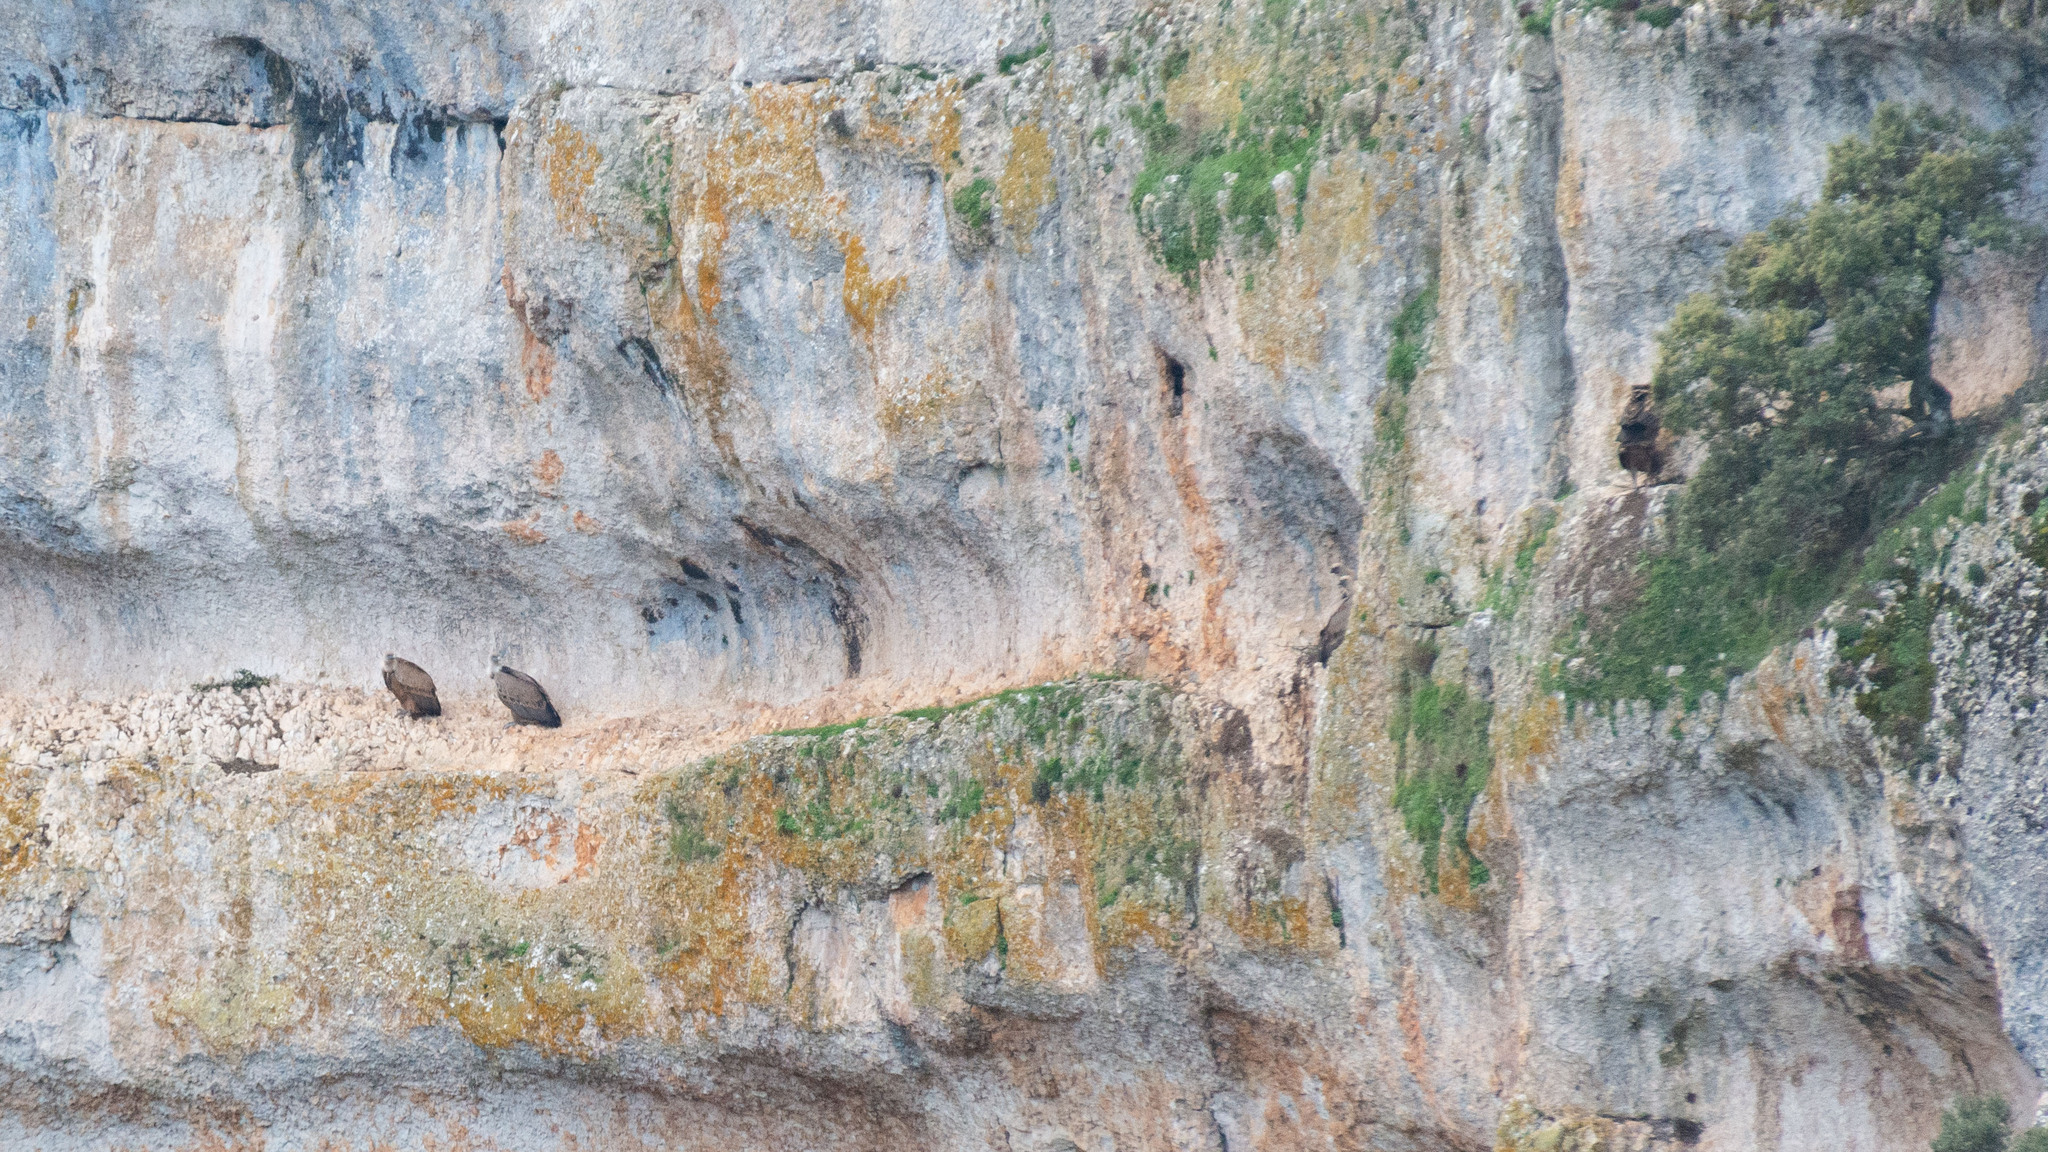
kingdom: Animalia
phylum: Chordata
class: Aves
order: Accipitriformes
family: Accipitridae
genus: Gyps
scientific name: Gyps fulvus
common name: Griffon vulture
